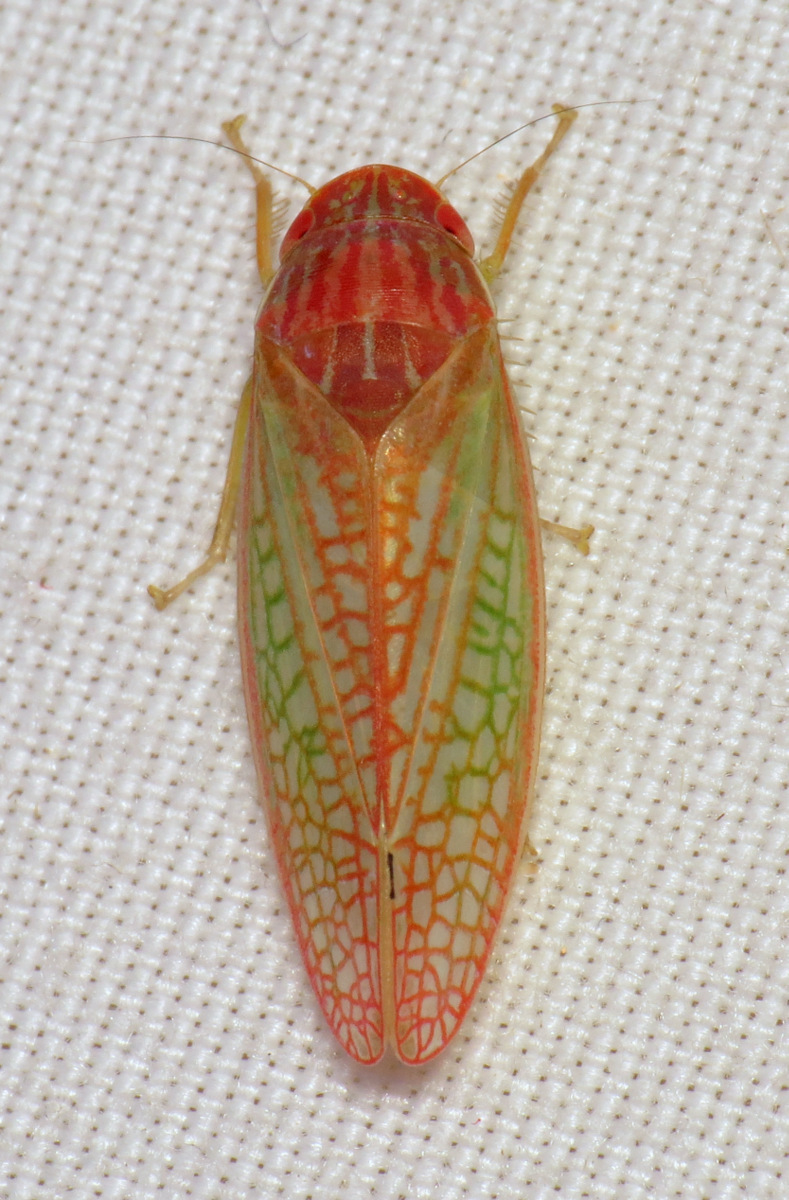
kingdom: Animalia
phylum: Arthropoda
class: Insecta
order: Hemiptera
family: Cicadellidae
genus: Gyponana
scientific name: Gyponana octolineata
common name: Eight-lined leafhopper
